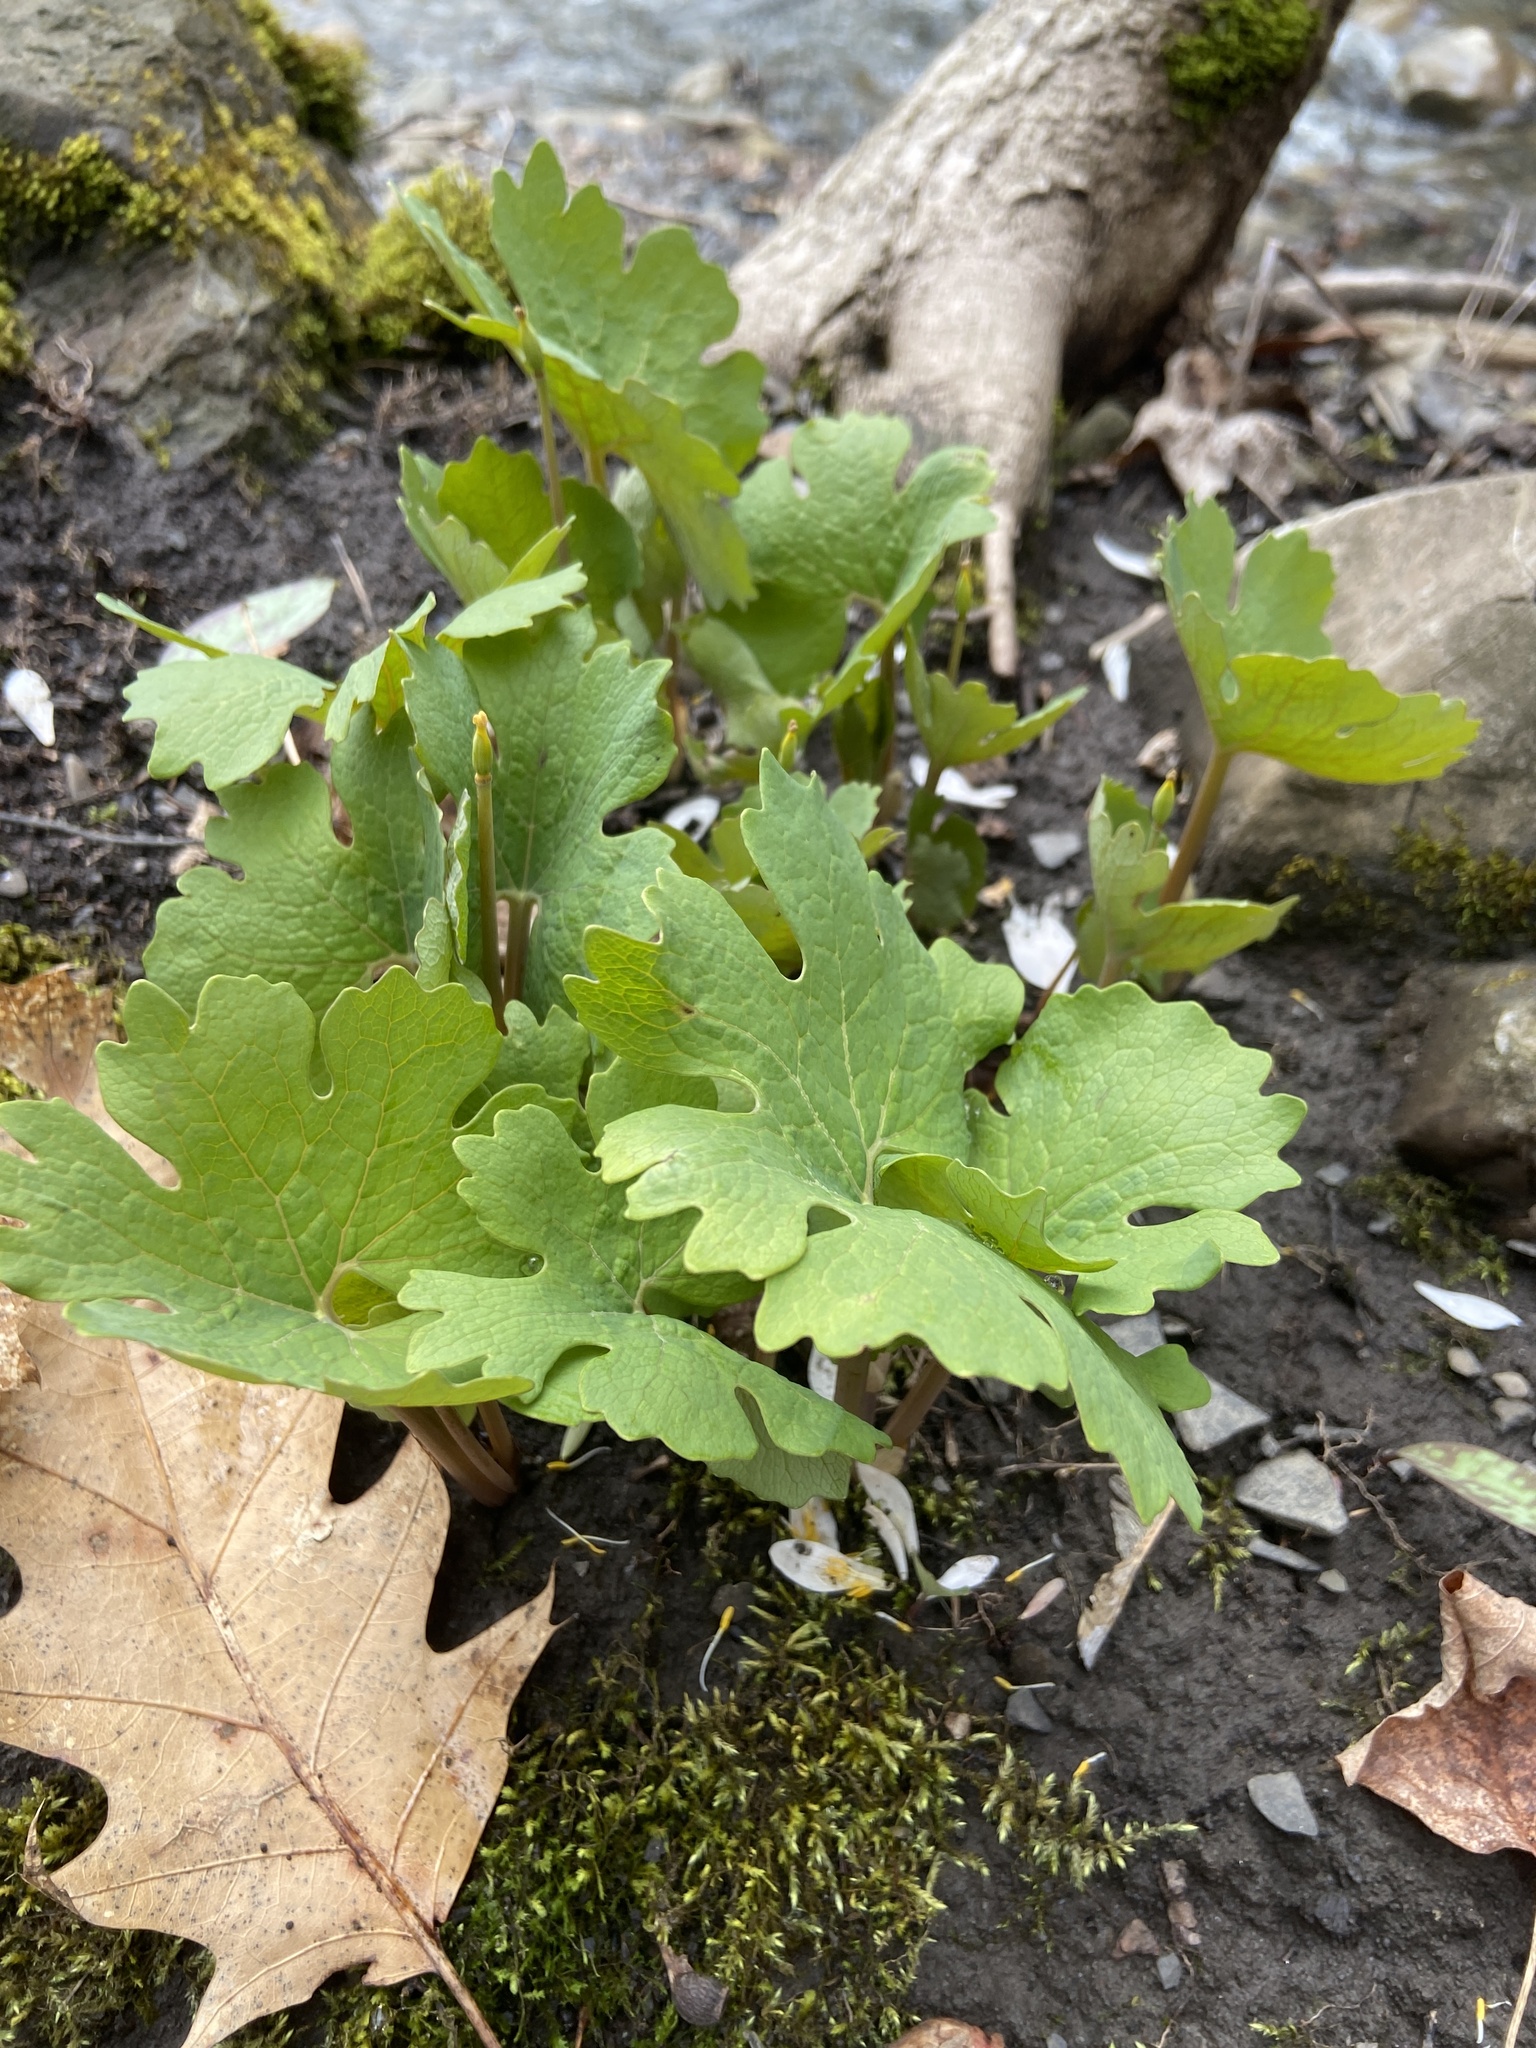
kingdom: Plantae
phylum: Tracheophyta
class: Magnoliopsida
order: Ranunculales
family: Papaveraceae
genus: Sanguinaria
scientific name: Sanguinaria canadensis
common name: Bloodroot
